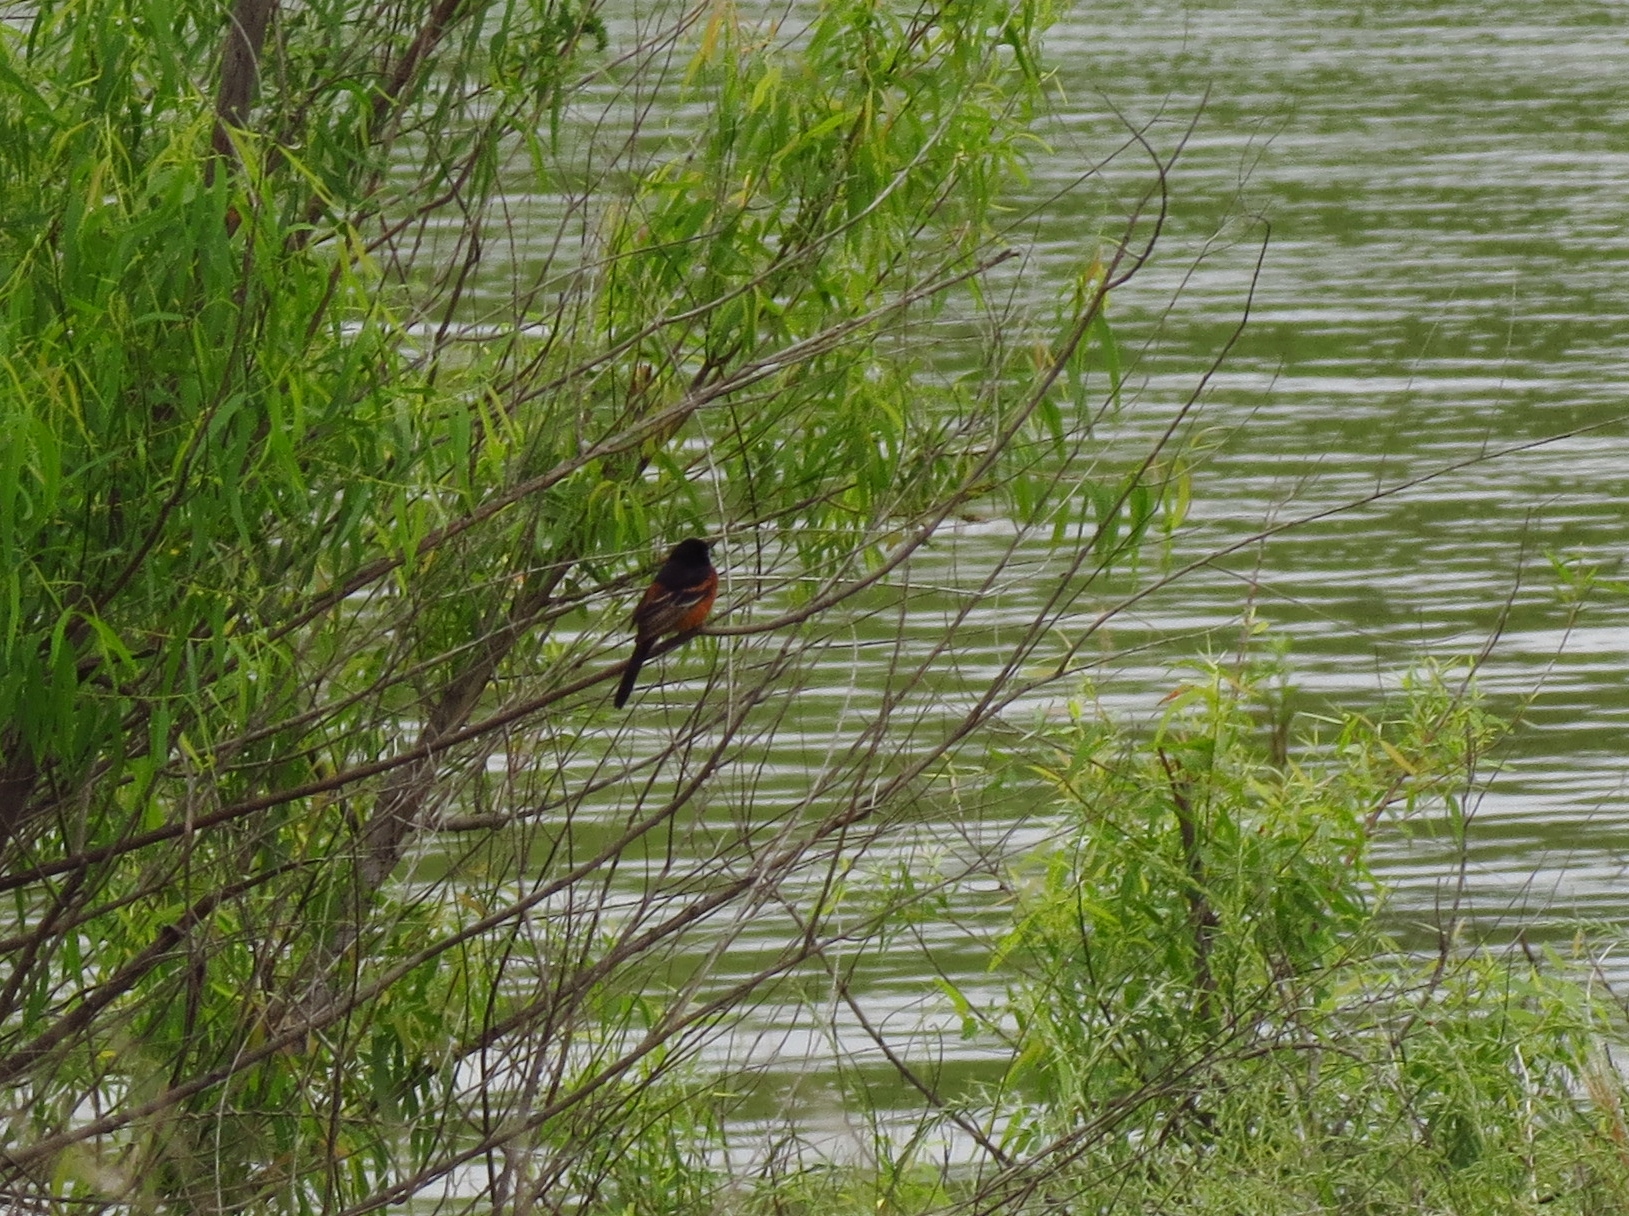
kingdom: Animalia
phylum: Chordata
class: Aves
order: Passeriformes
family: Icteridae
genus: Icterus
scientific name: Icterus spurius
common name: Orchard oriole
